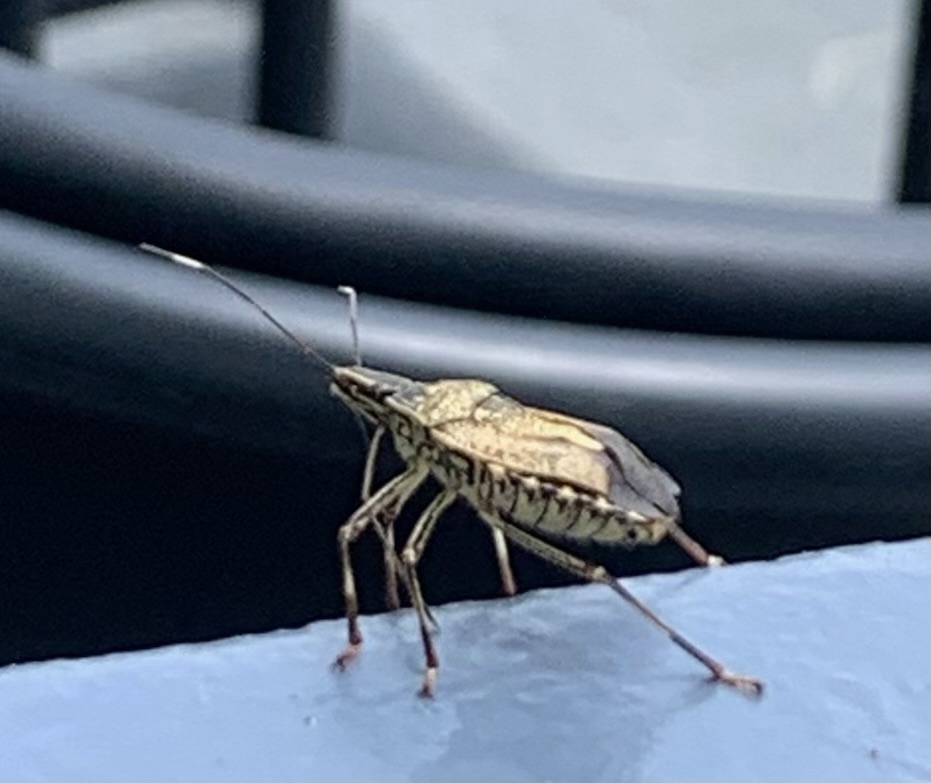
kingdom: Animalia
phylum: Arthropoda
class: Insecta
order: Hemiptera
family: Pentatomidae
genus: Erthesina
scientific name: Erthesina acuminata
